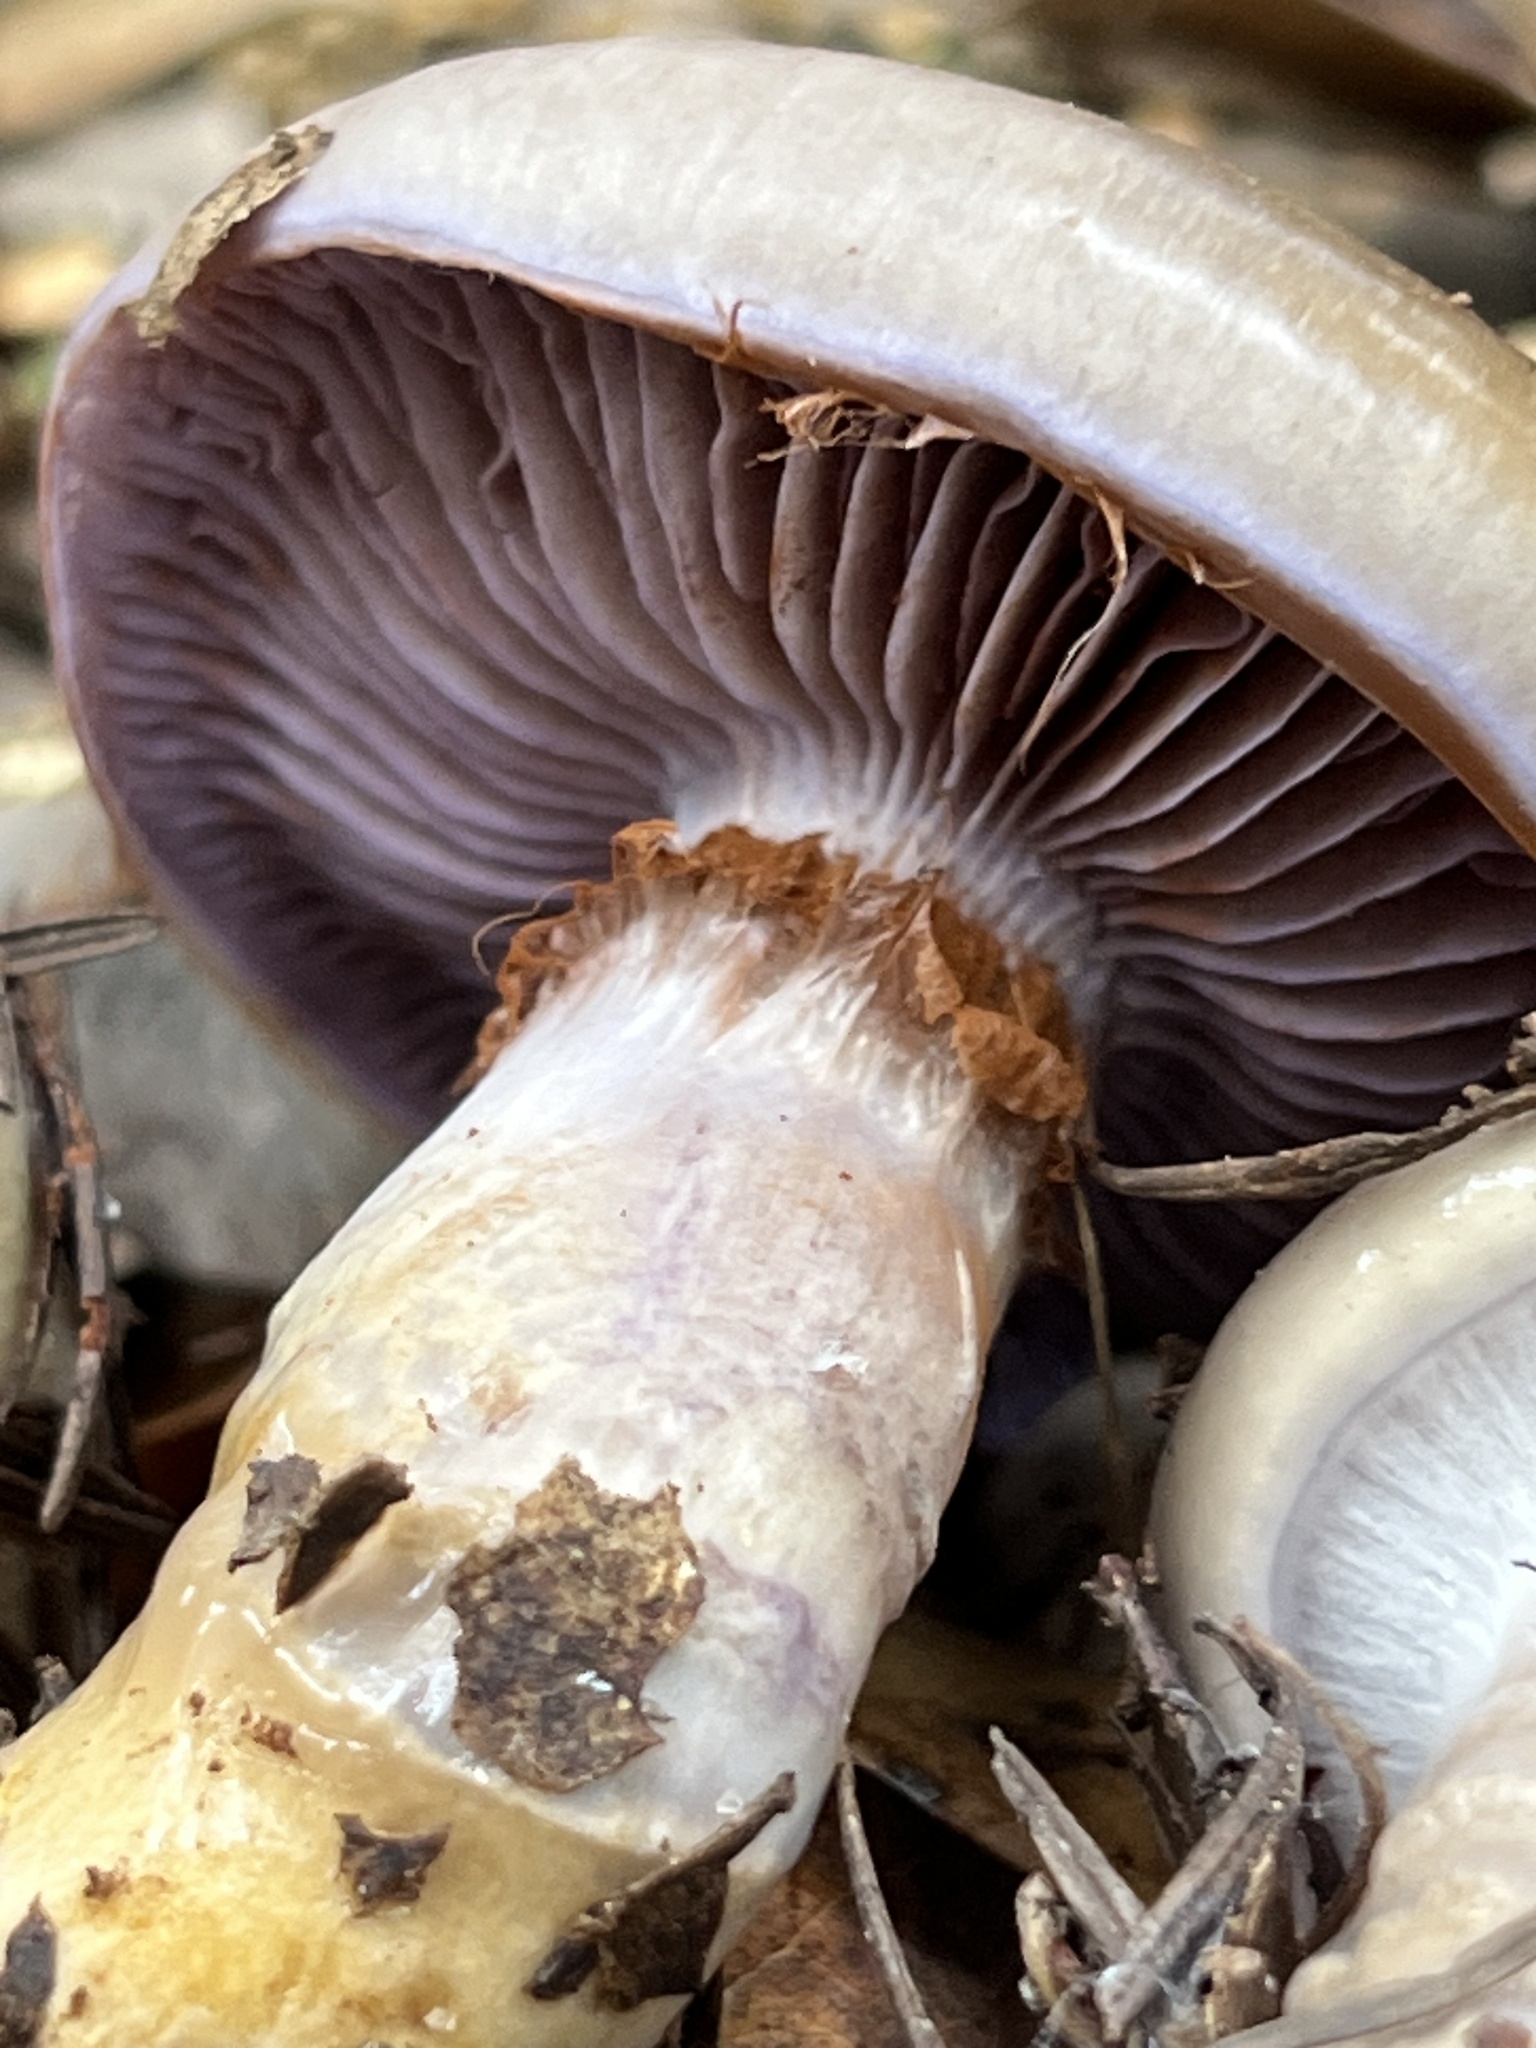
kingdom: Fungi
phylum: Basidiomycota
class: Agaricomycetes
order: Agaricales
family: Cortinariaceae
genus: Cortinarius
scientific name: Cortinarius glutinosoarmillatus
